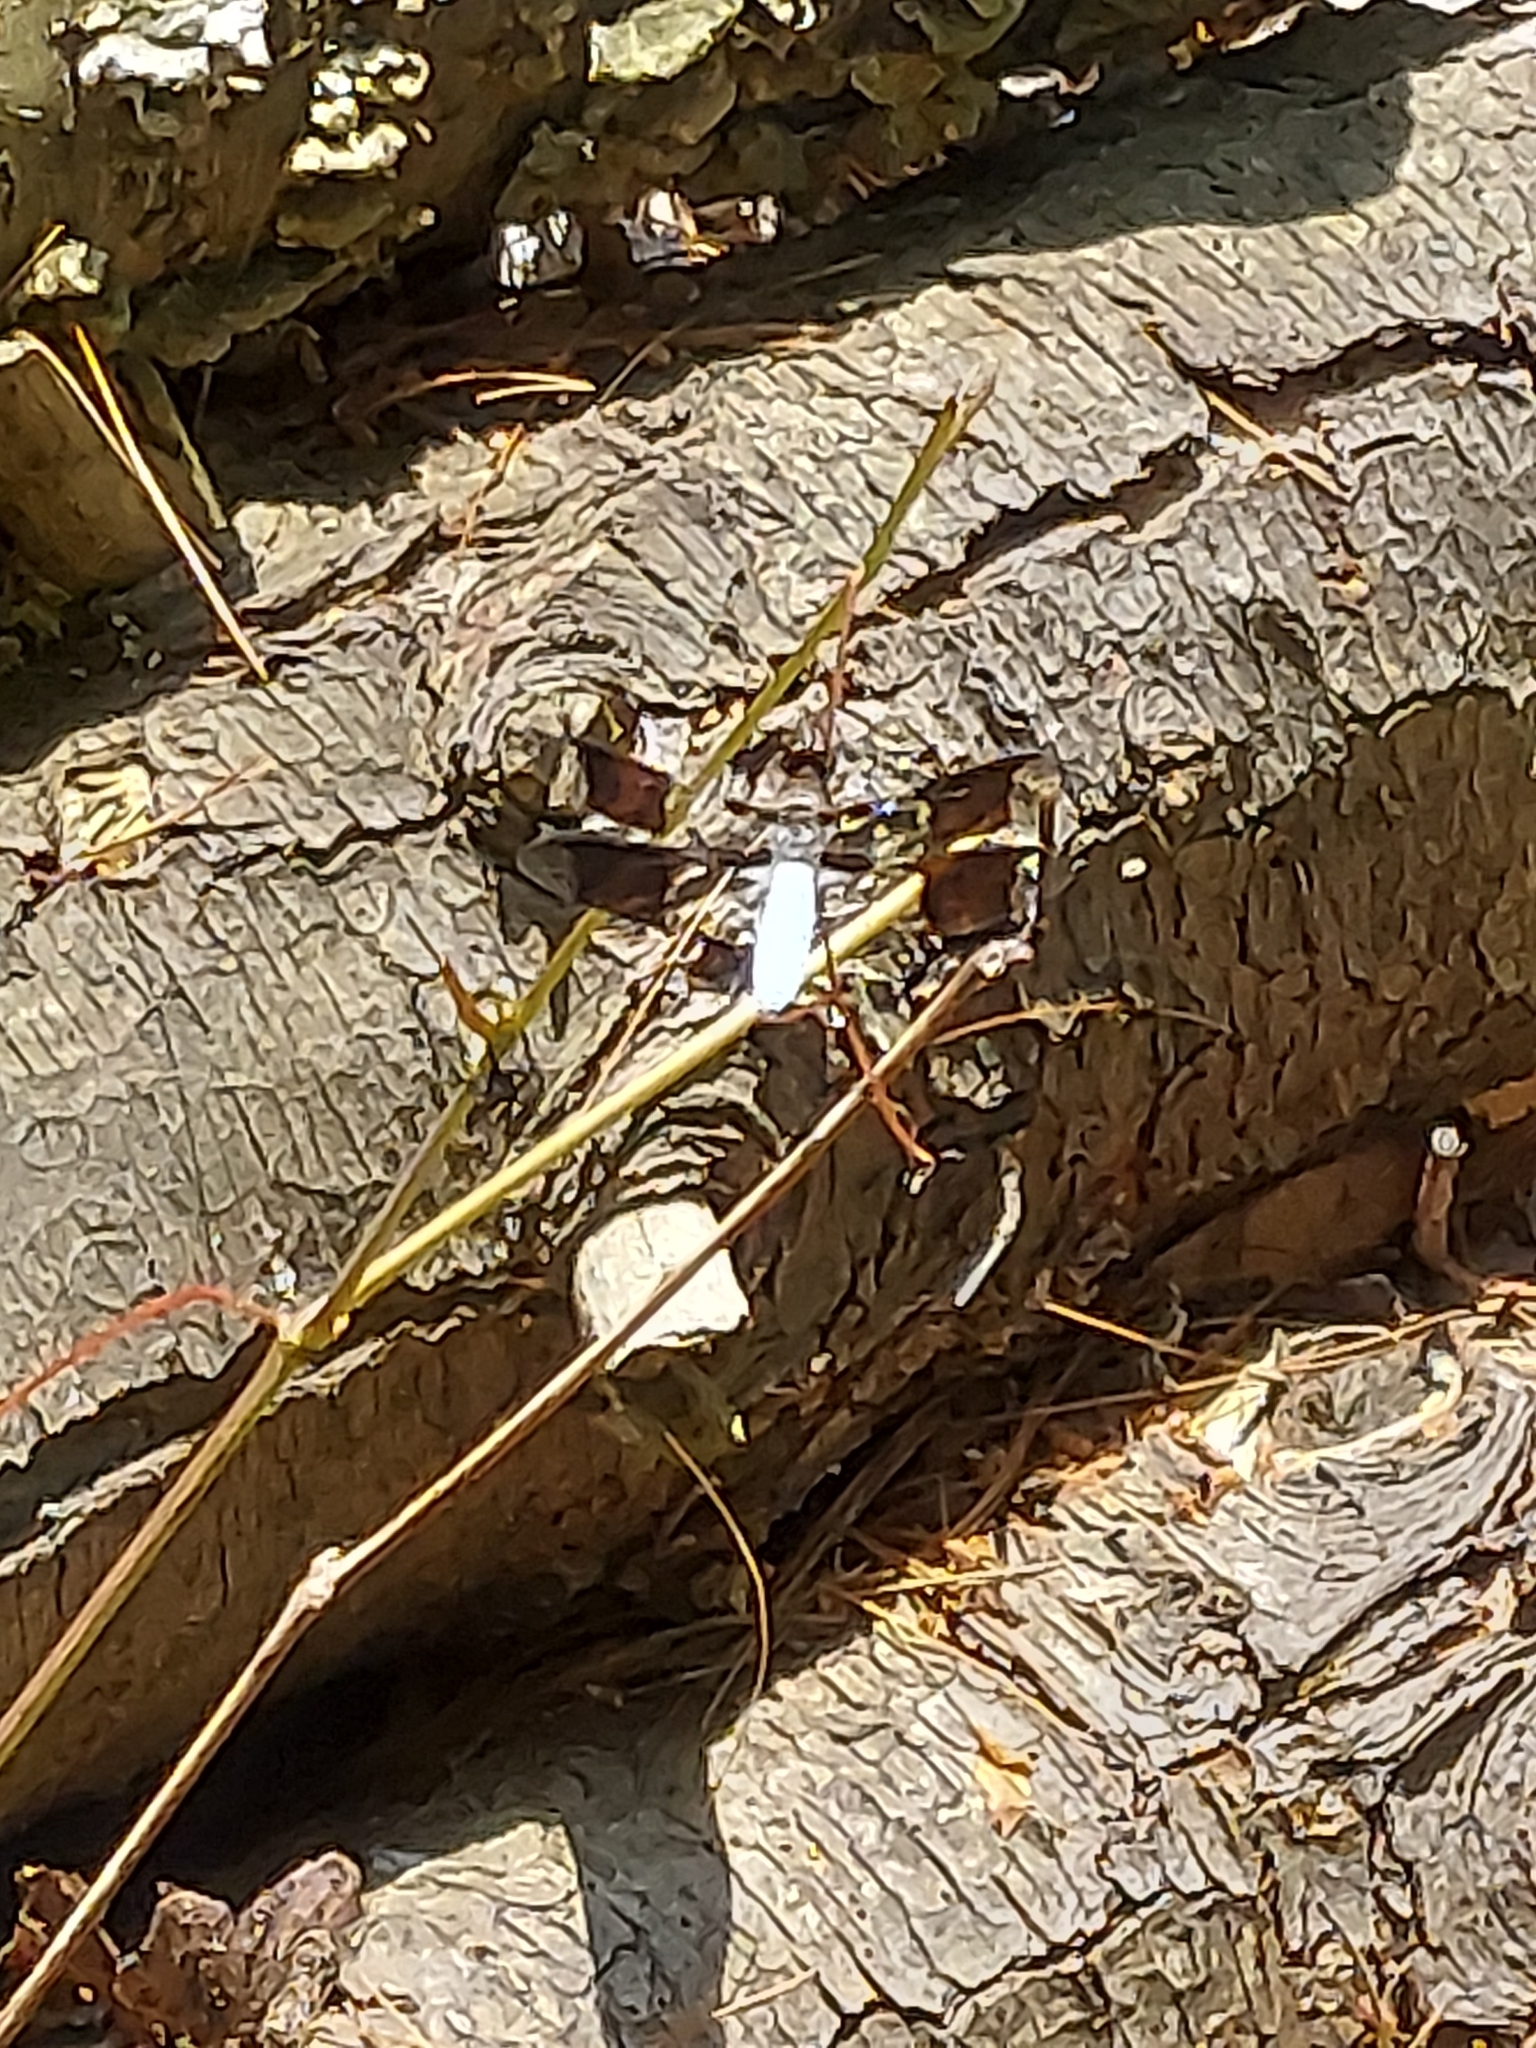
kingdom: Animalia
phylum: Arthropoda
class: Insecta
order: Odonata
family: Libellulidae
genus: Plathemis
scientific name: Plathemis lydia
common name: Common whitetail
